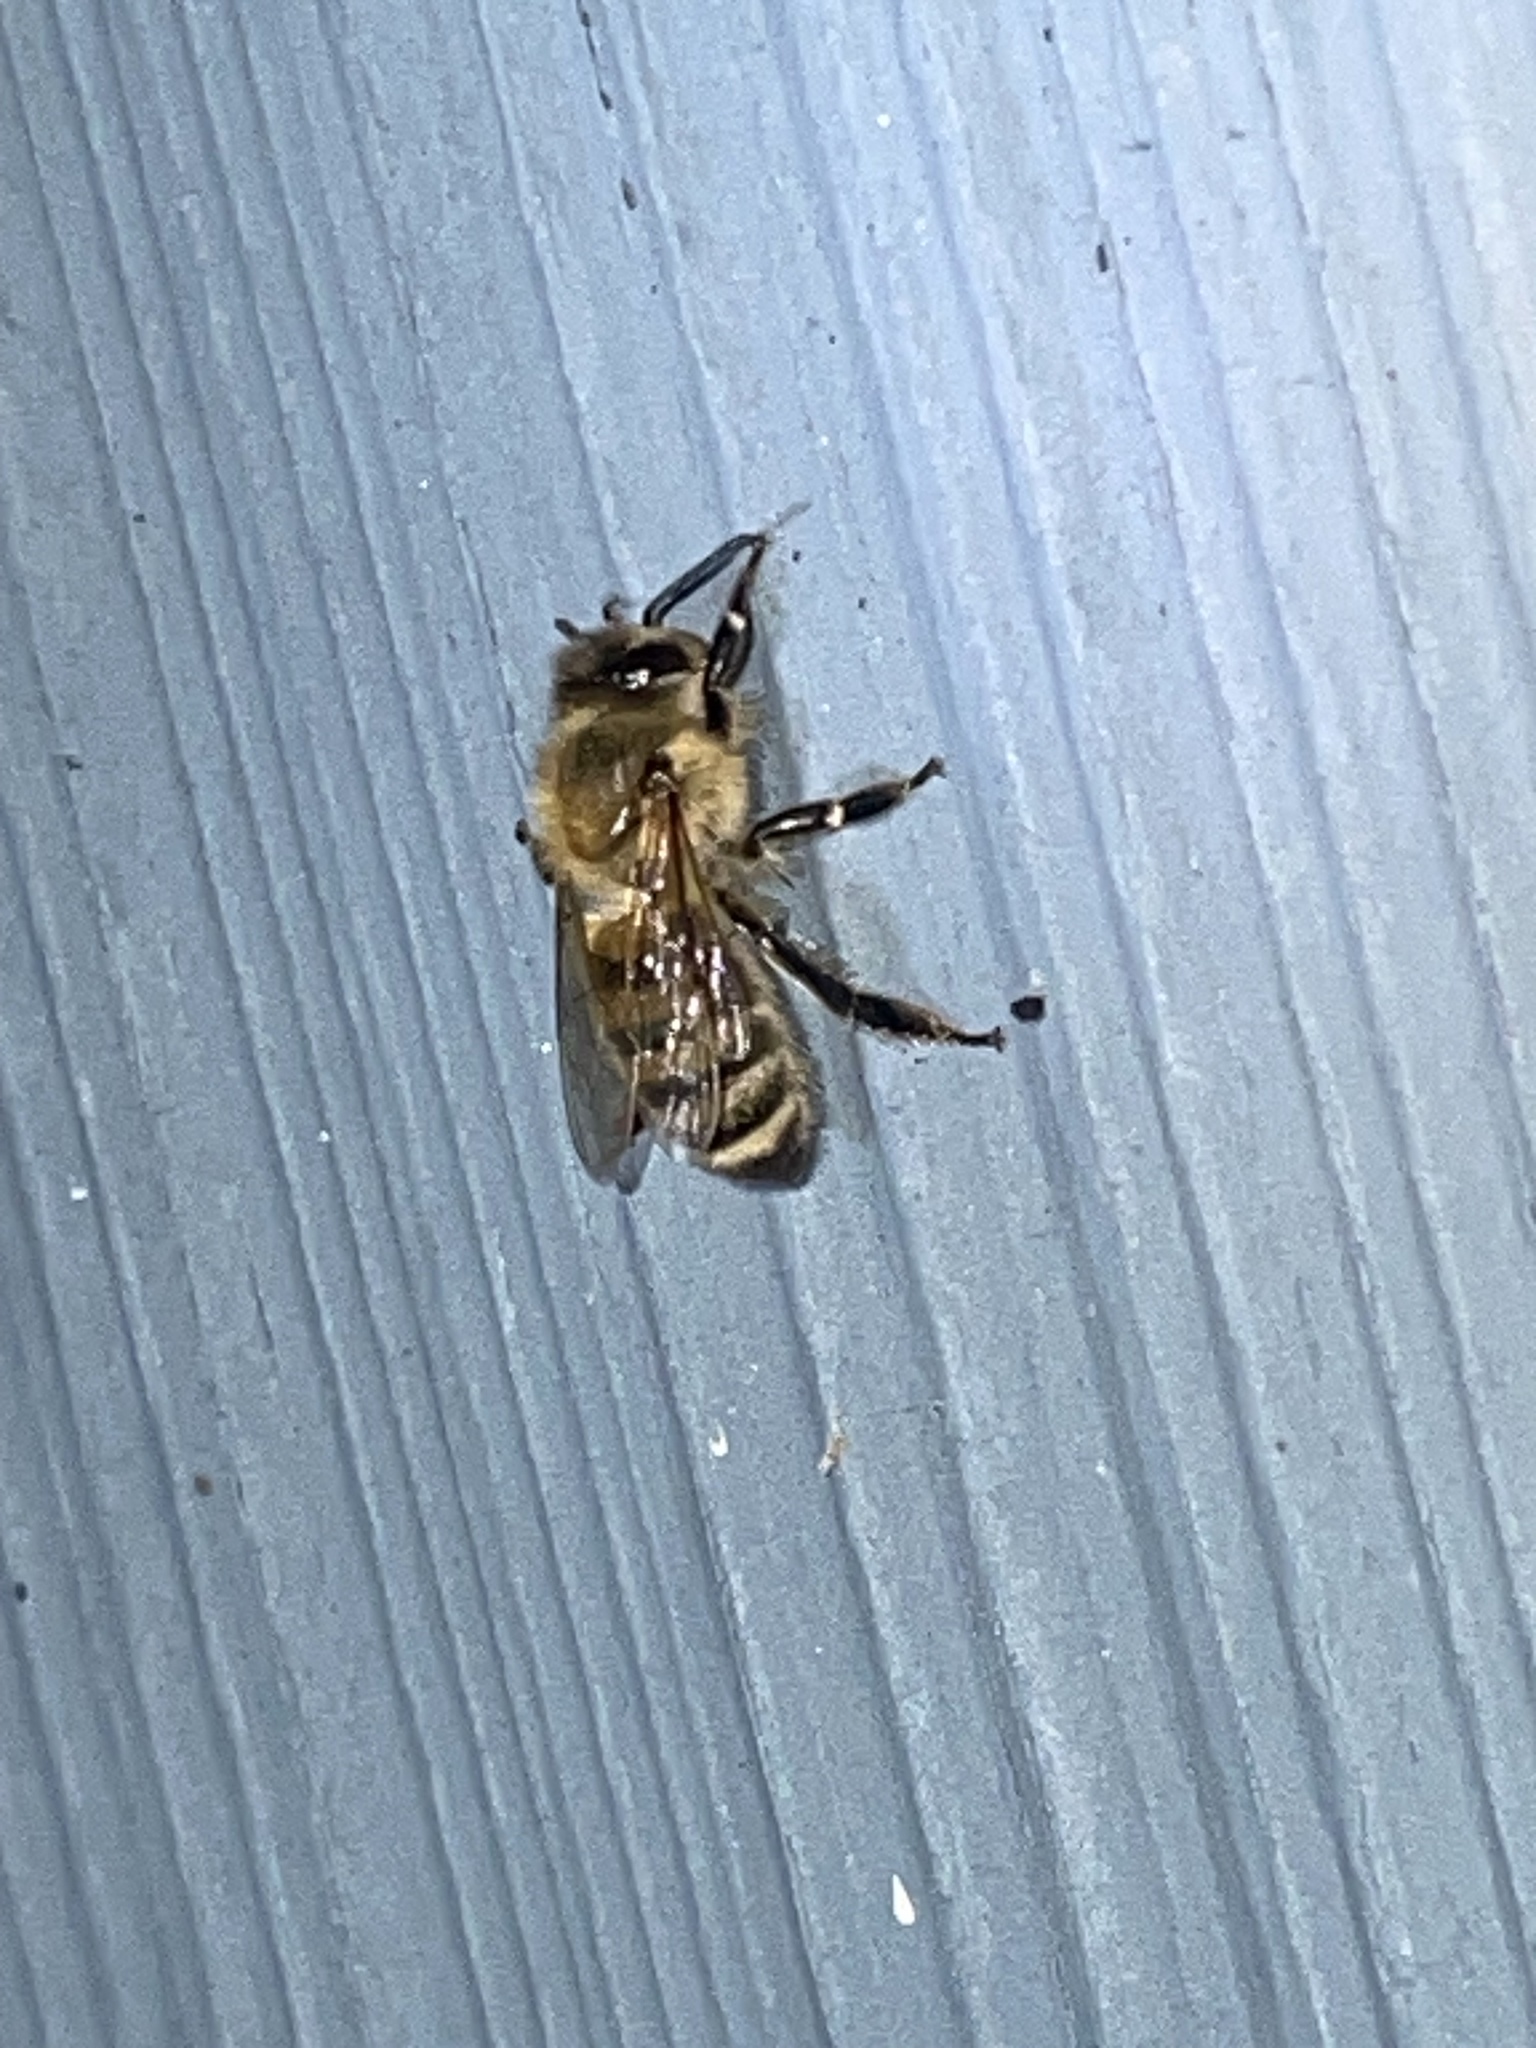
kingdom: Animalia
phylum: Arthropoda
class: Insecta
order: Hymenoptera
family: Apidae
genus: Apis
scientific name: Apis mellifera
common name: Honey bee
